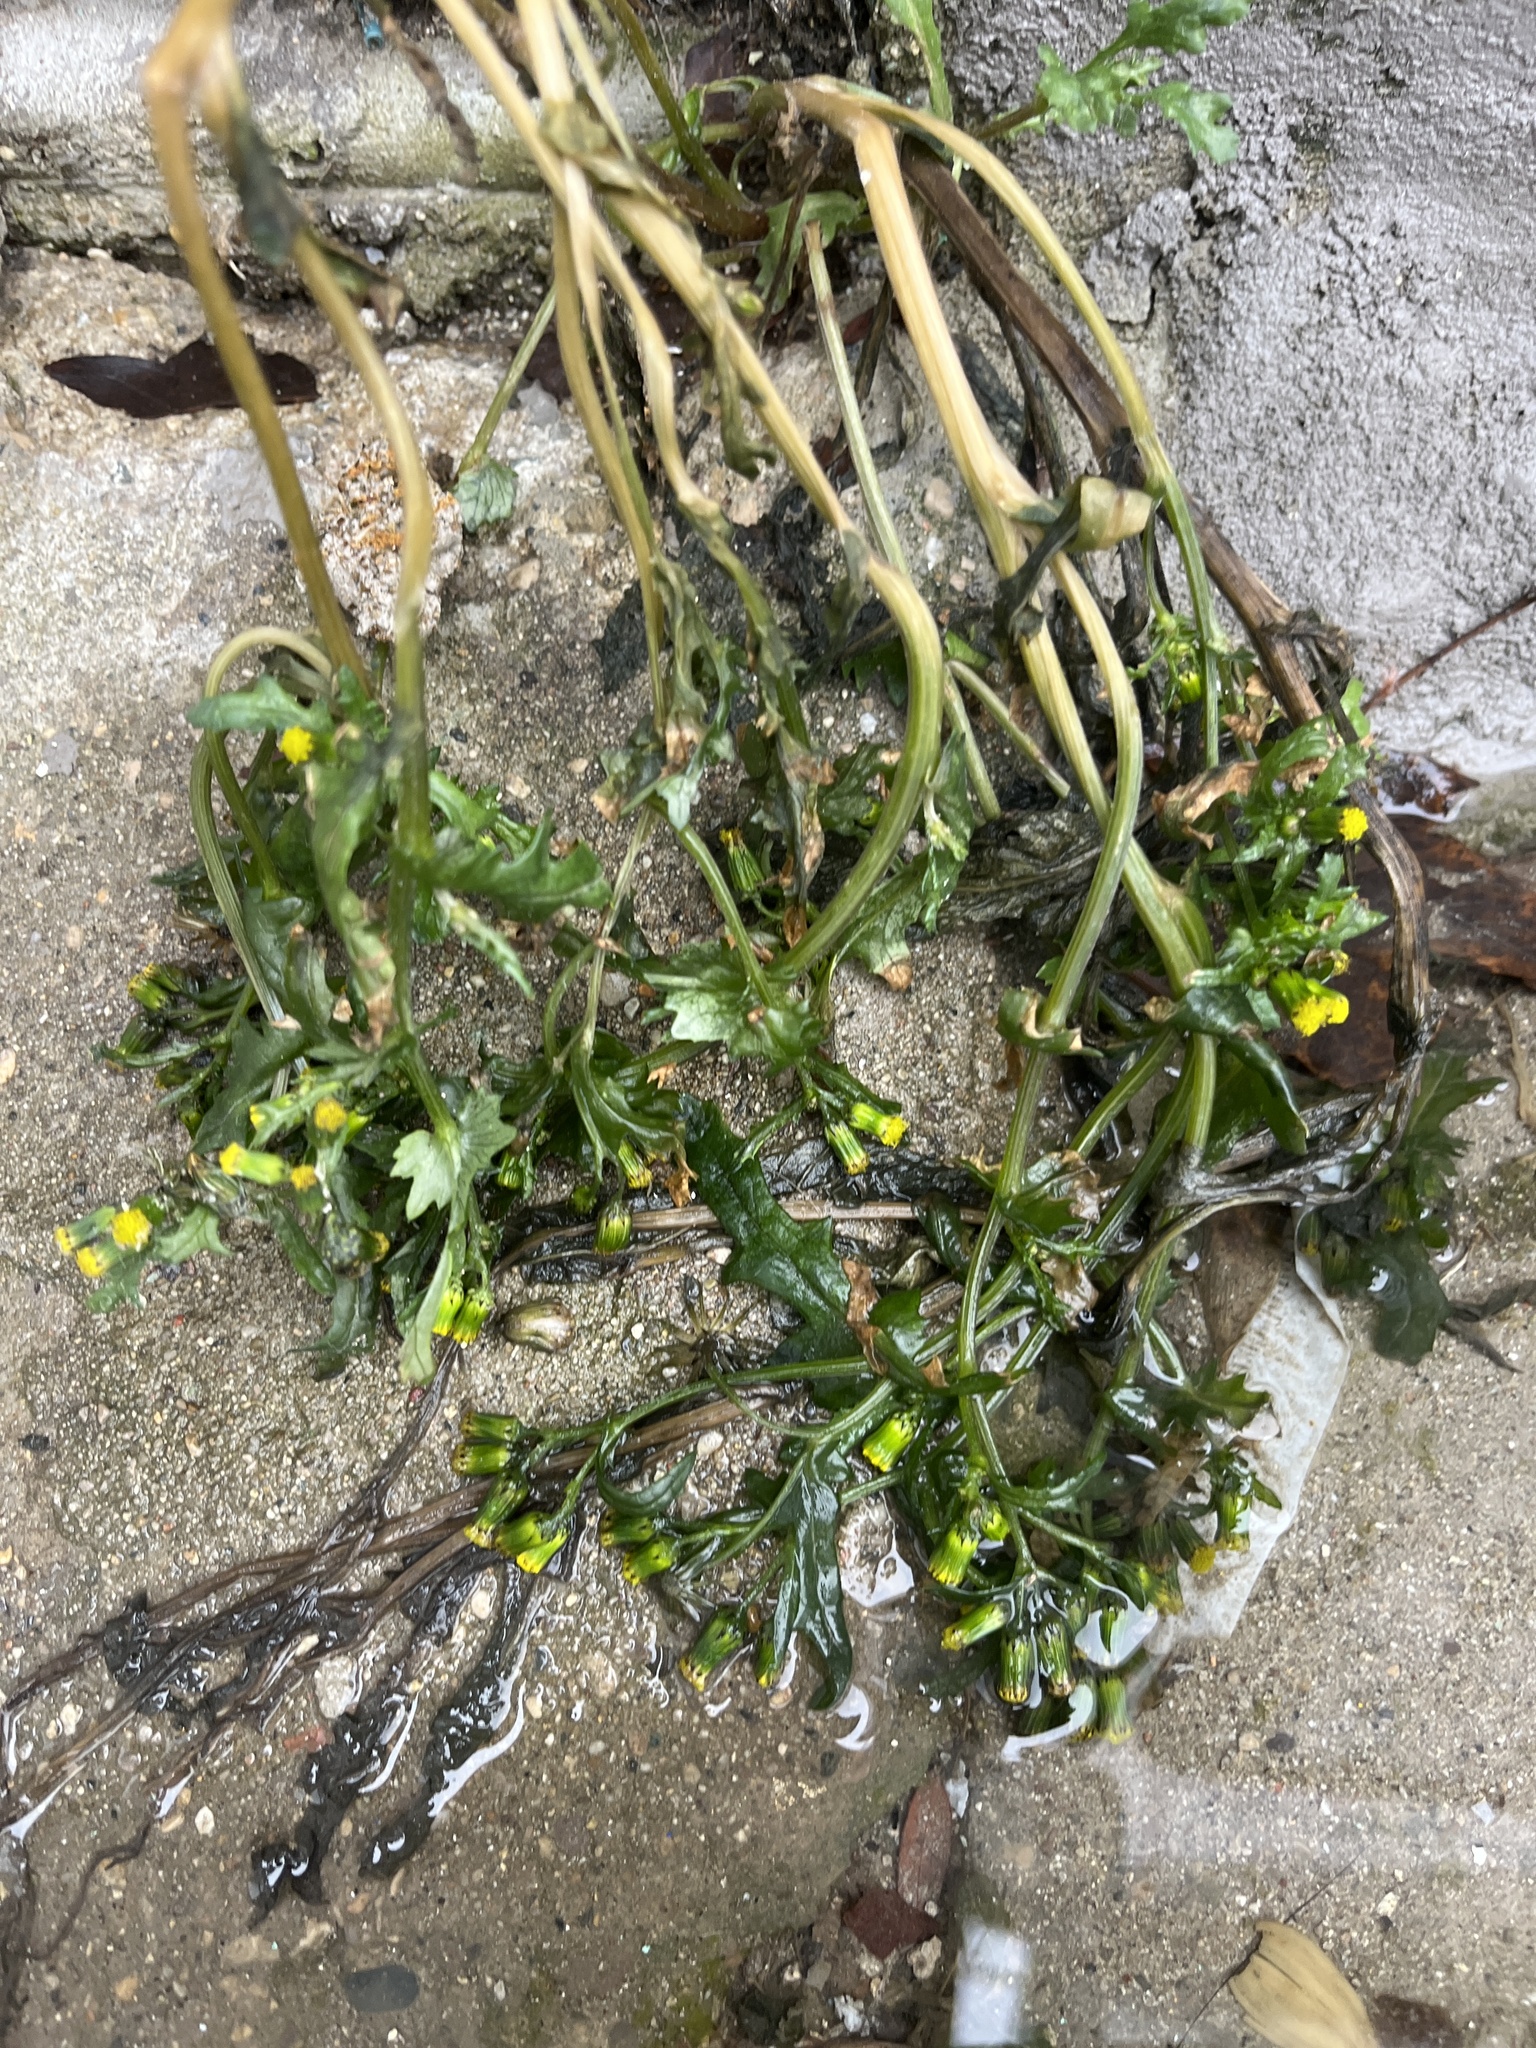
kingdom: Plantae
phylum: Tracheophyta
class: Magnoliopsida
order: Asterales
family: Asteraceae
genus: Senecio
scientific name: Senecio vulgaris
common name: Old-man-in-the-spring
